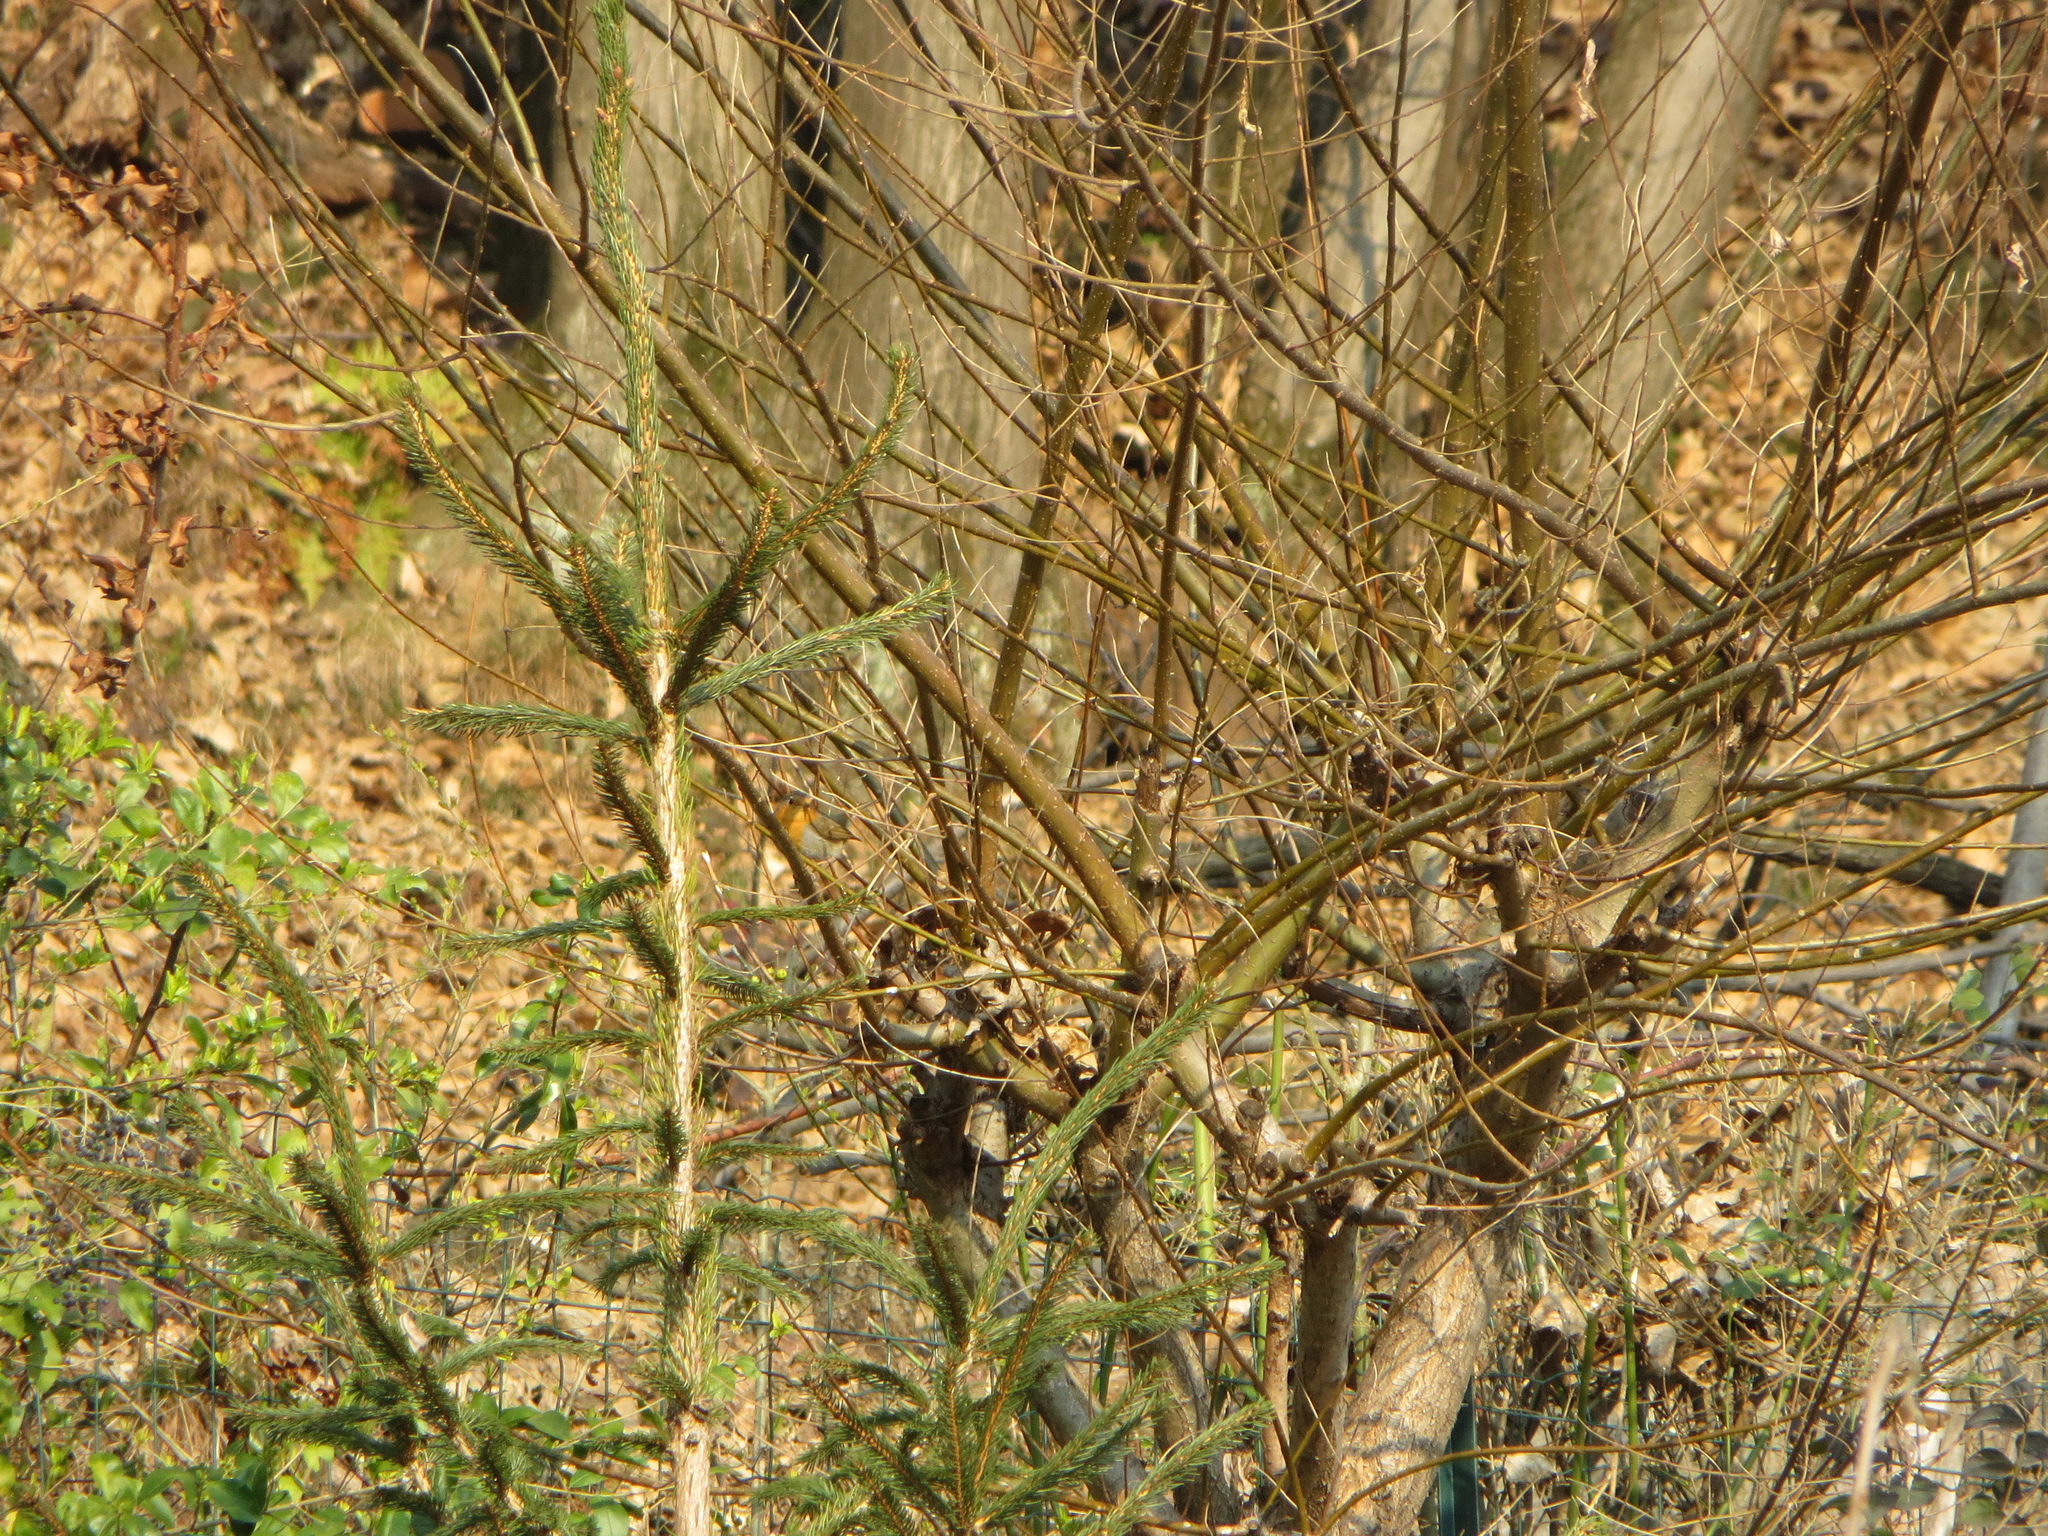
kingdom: Animalia
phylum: Chordata
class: Aves
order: Passeriformes
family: Muscicapidae
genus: Erithacus
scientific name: Erithacus rubecula
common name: European robin
